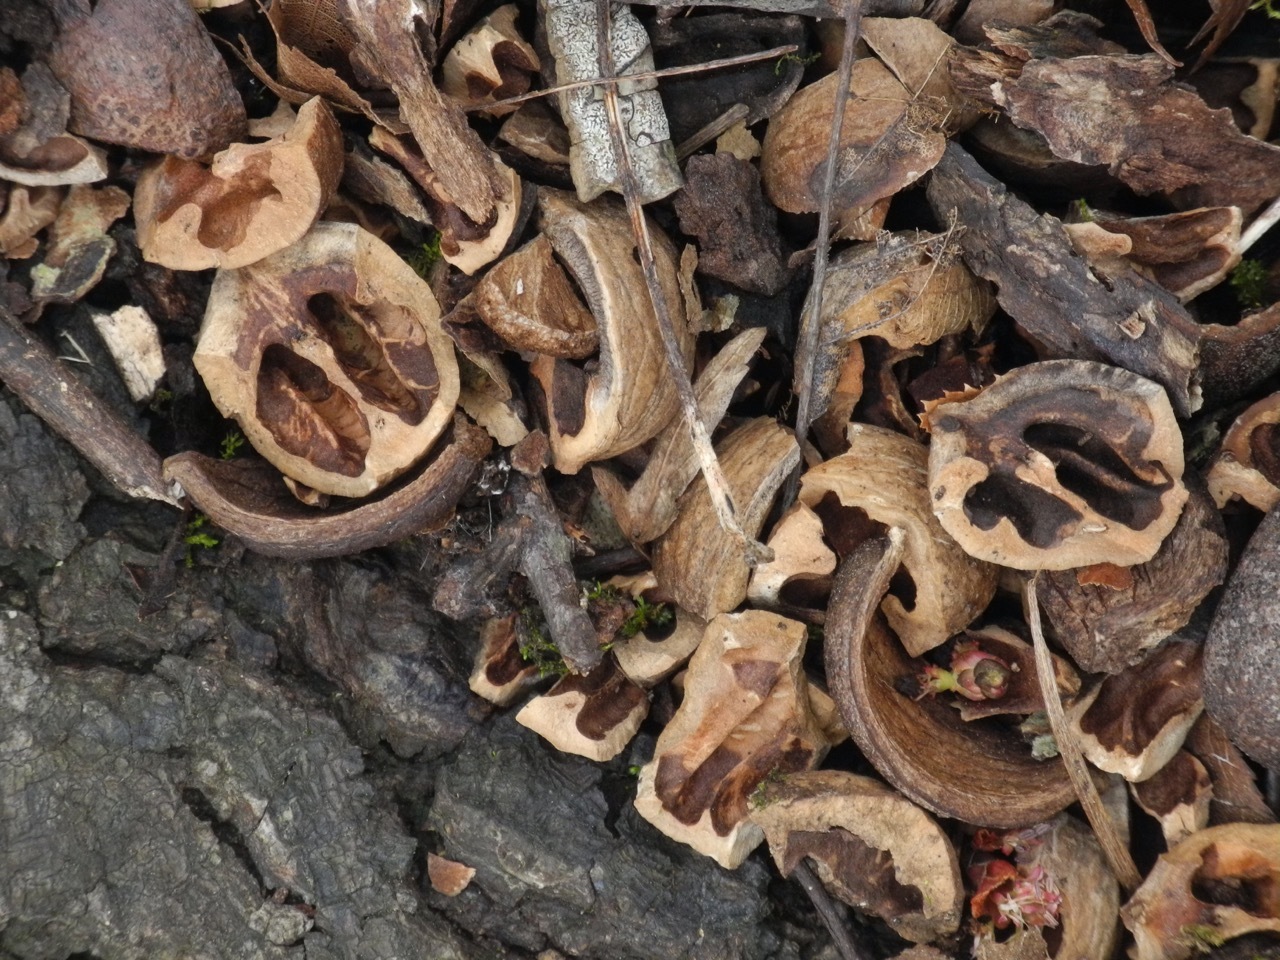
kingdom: Plantae
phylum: Tracheophyta
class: Magnoliopsida
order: Fagales
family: Juglandaceae
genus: Carya
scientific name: Carya cordiformis
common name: Bitternut hickory
